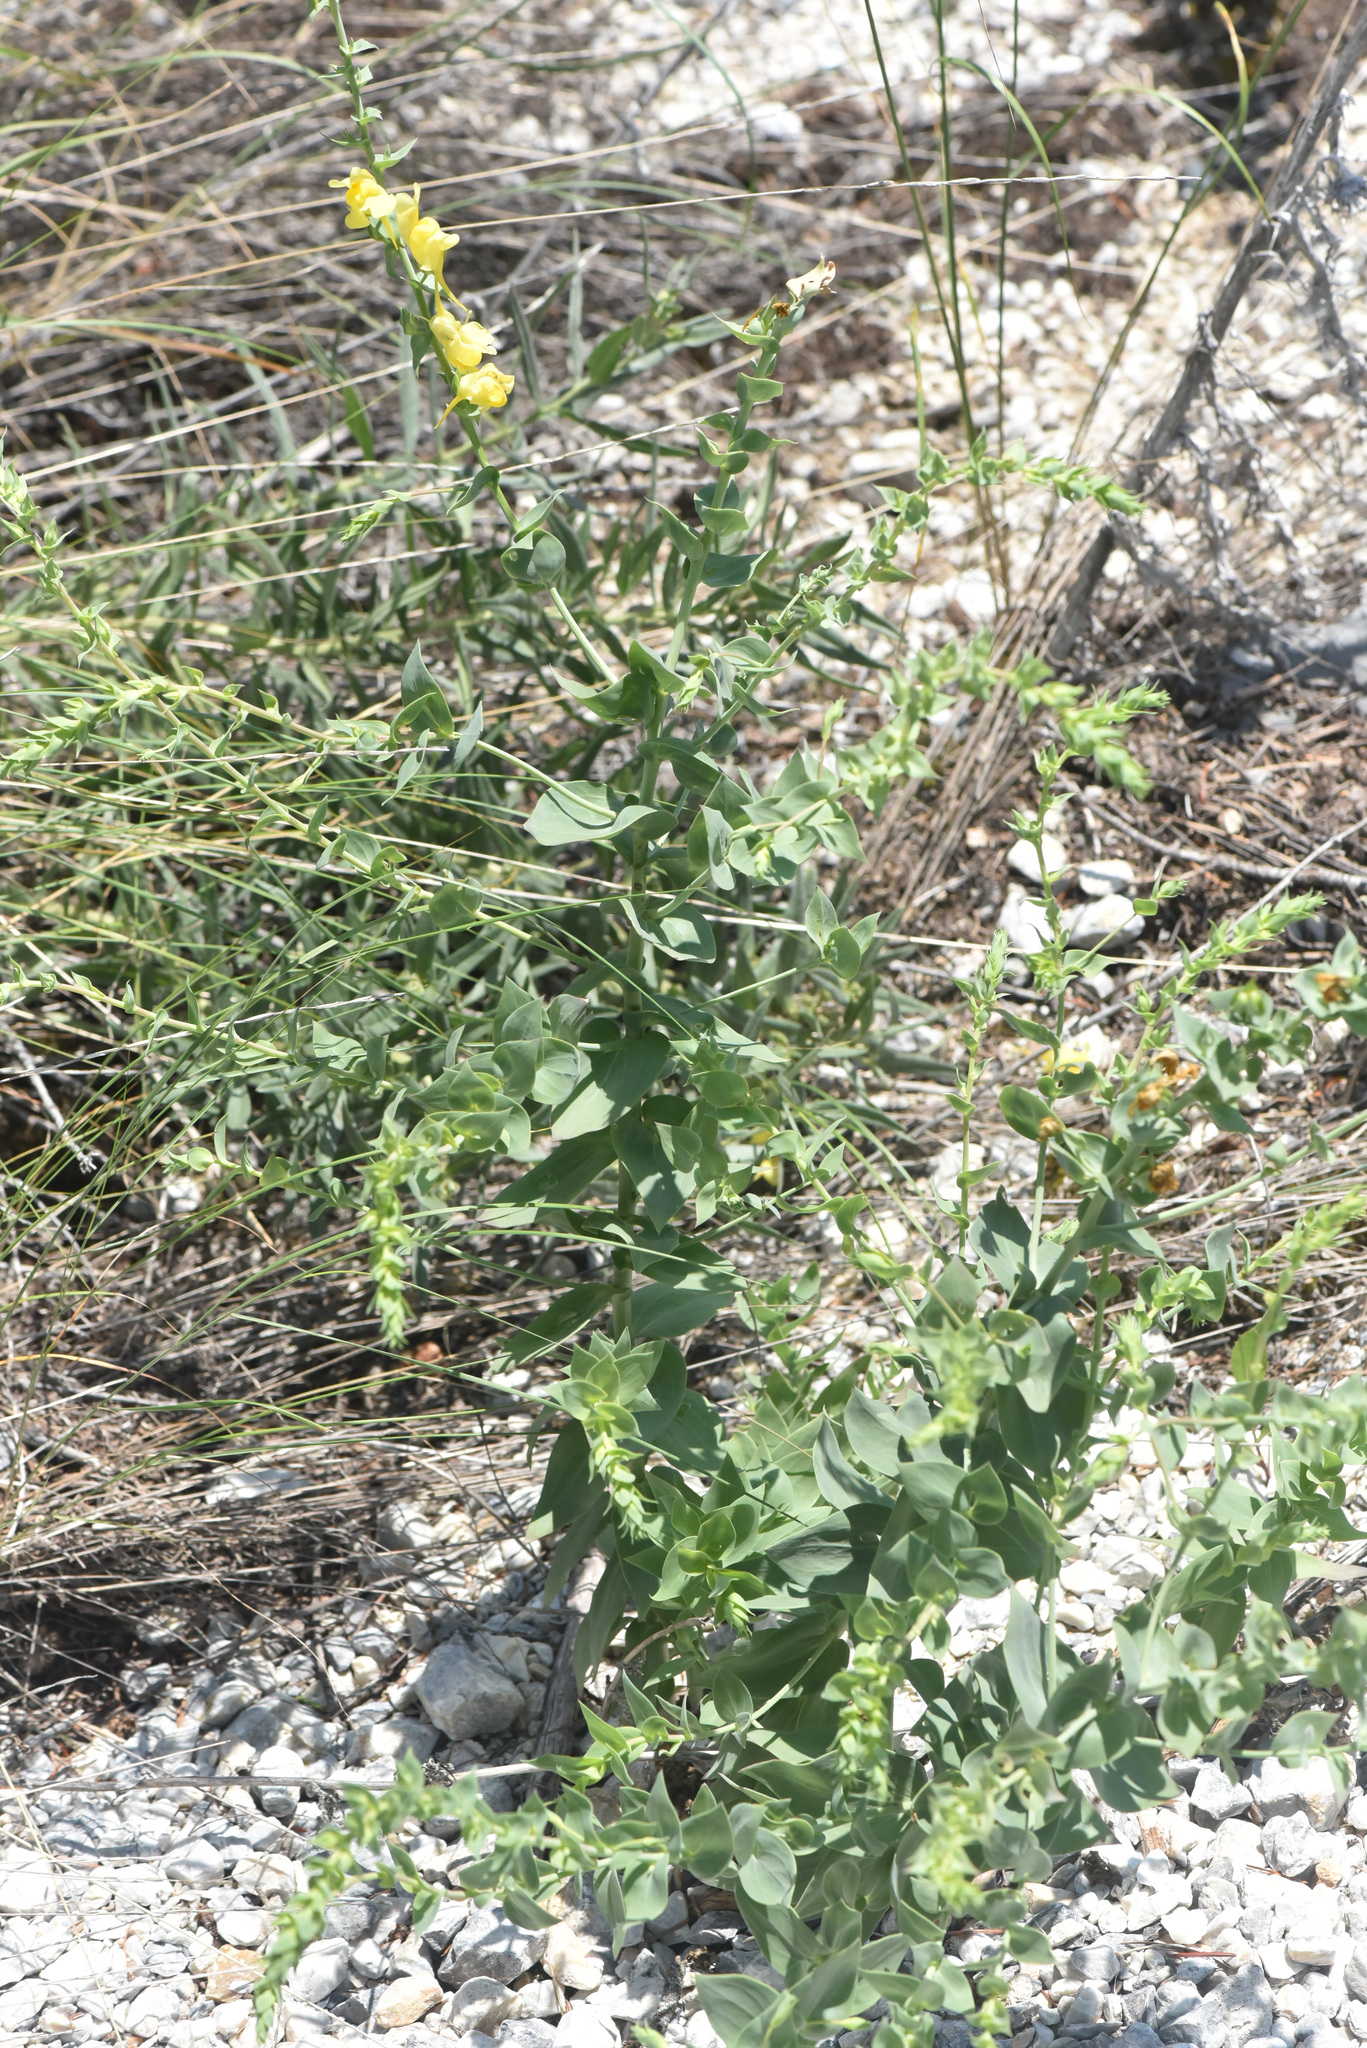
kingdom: Plantae
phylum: Tracheophyta
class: Magnoliopsida
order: Lamiales
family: Plantaginaceae
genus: Linaria
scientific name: Linaria dalmatica
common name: Dalmatian toadflax
